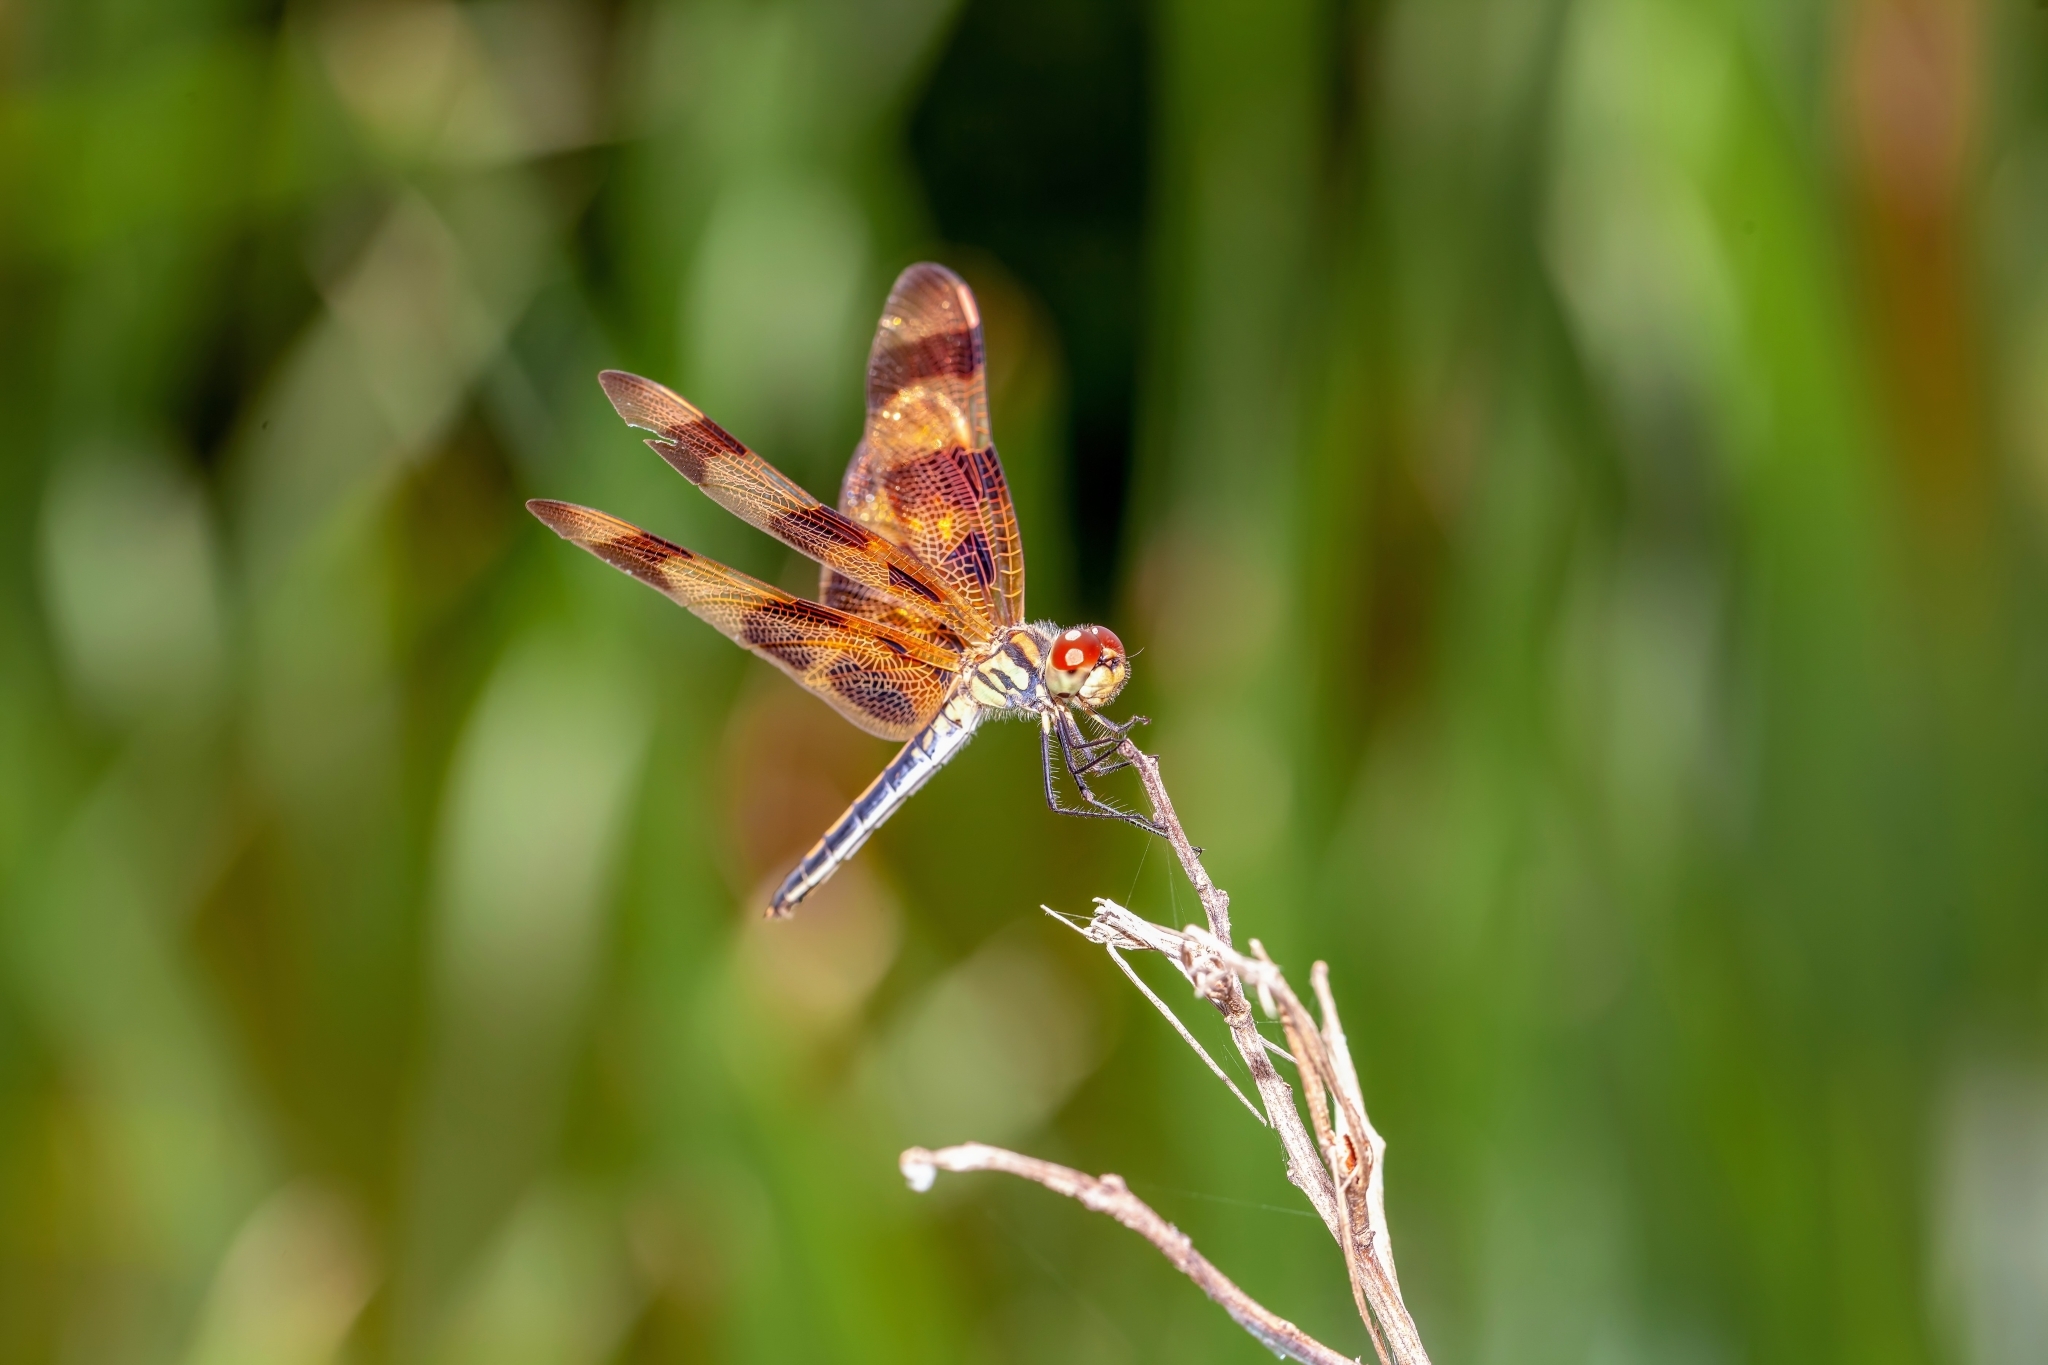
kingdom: Animalia
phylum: Arthropoda
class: Insecta
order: Odonata
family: Libellulidae
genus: Celithemis
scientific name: Celithemis eponina
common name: Halloween pennant
